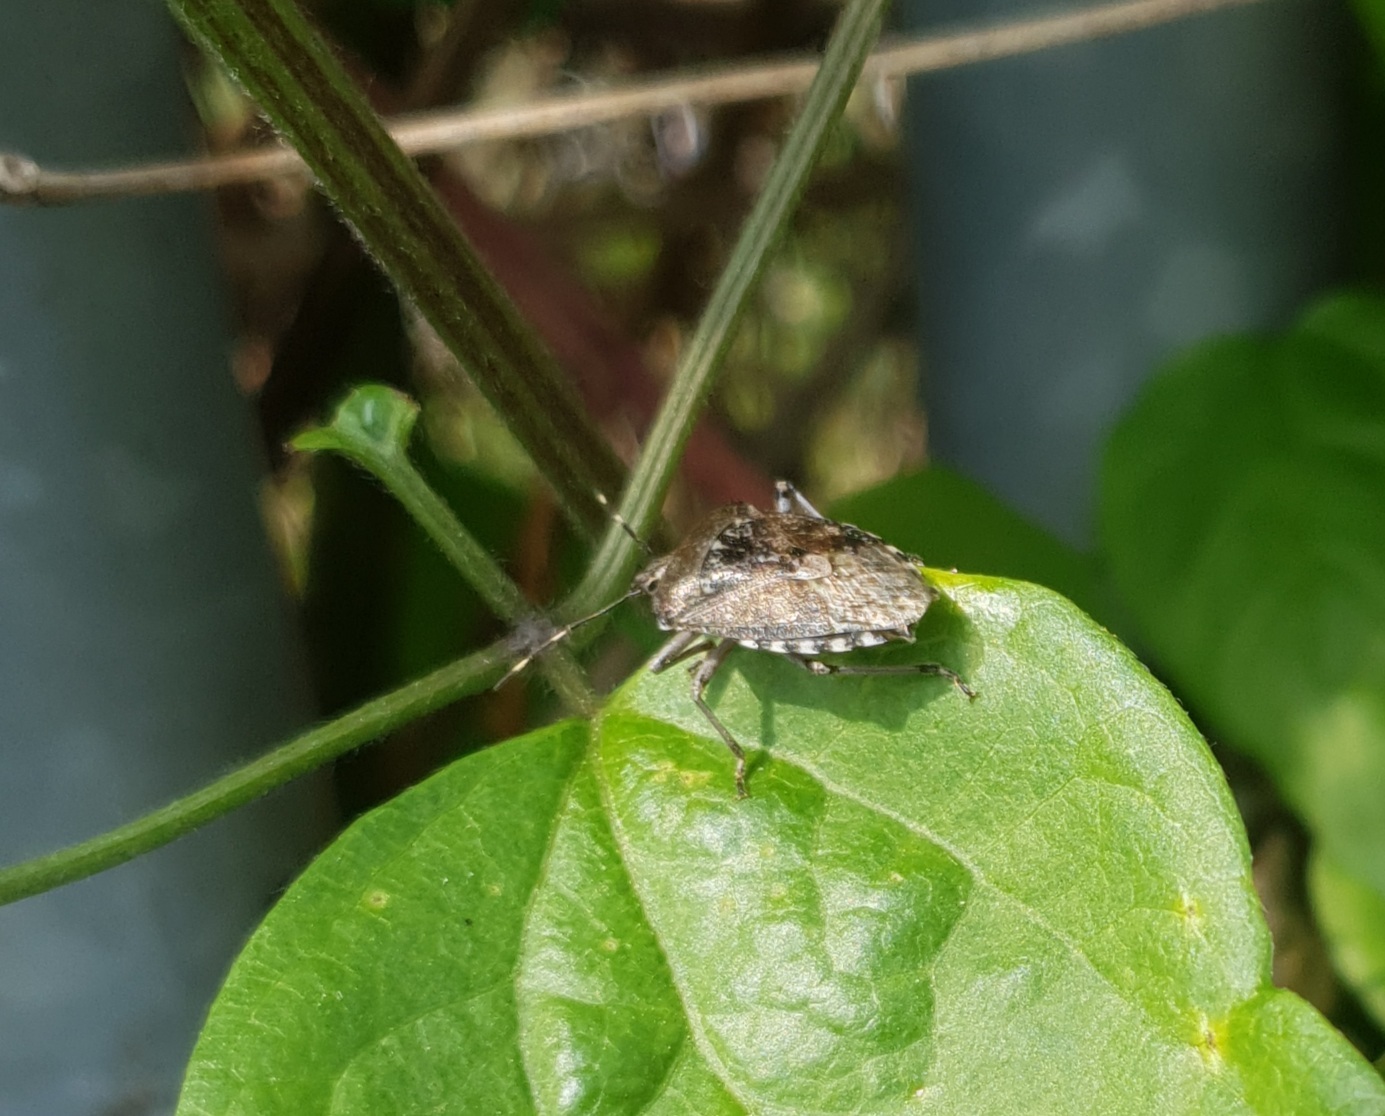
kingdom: Animalia
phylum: Arthropoda
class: Insecta
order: Hemiptera
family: Pentatomidae
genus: Rhaphigaster
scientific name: Rhaphigaster nebulosa
